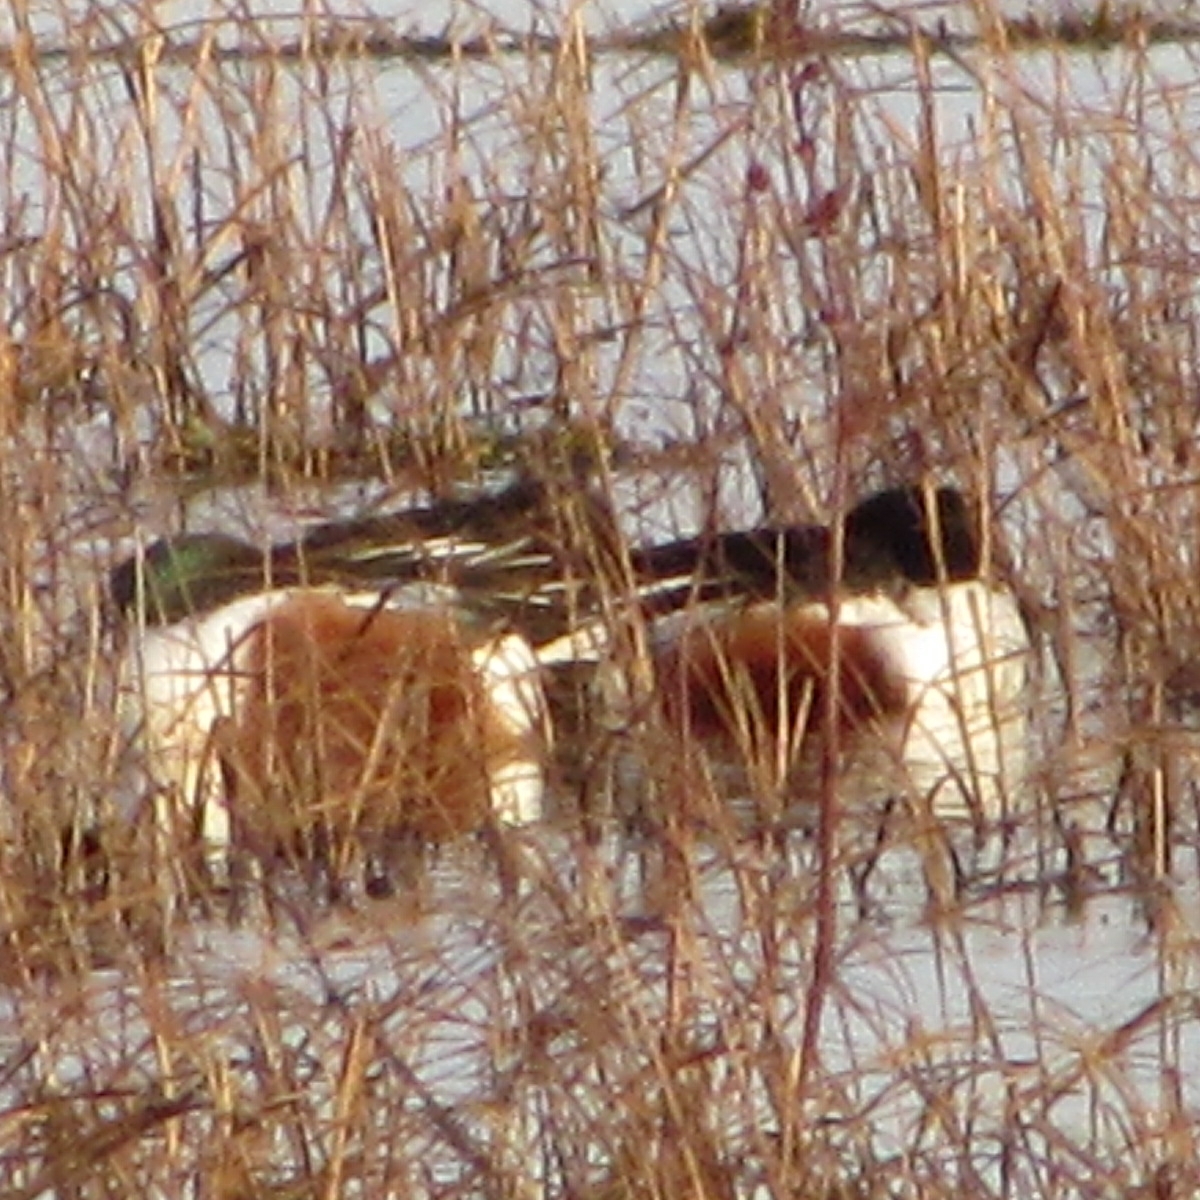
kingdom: Animalia
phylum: Chordata
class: Aves
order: Anseriformes
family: Anatidae
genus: Spatula
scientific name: Spatula clypeata
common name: Northern shoveler
